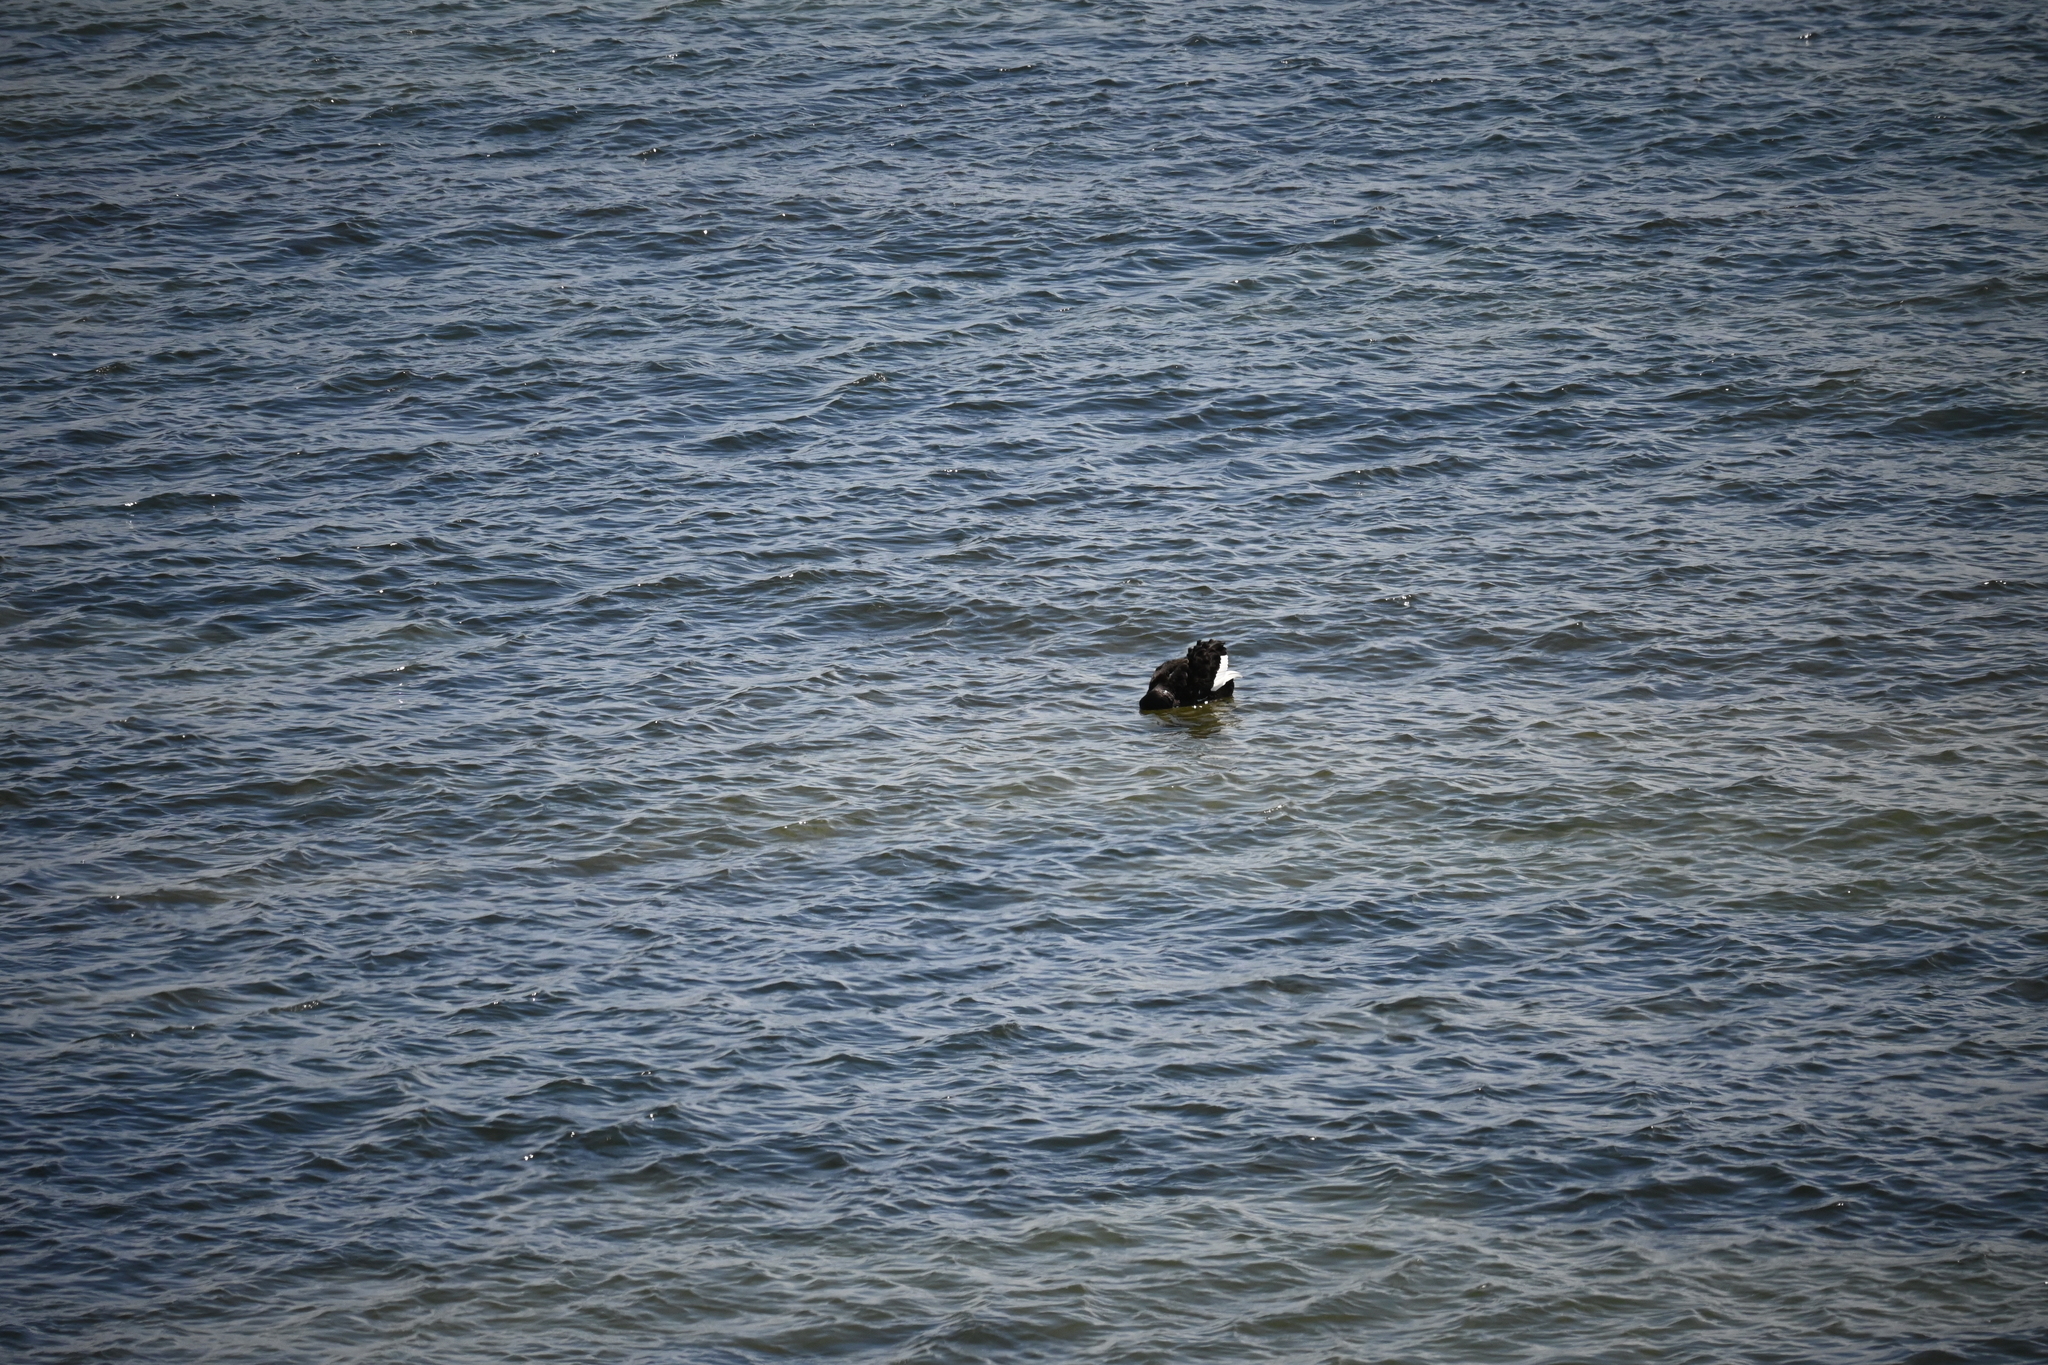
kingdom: Animalia
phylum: Chordata
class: Aves
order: Anseriformes
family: Anatidae
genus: Cygnus
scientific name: Cygnus atratus
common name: Black swan
